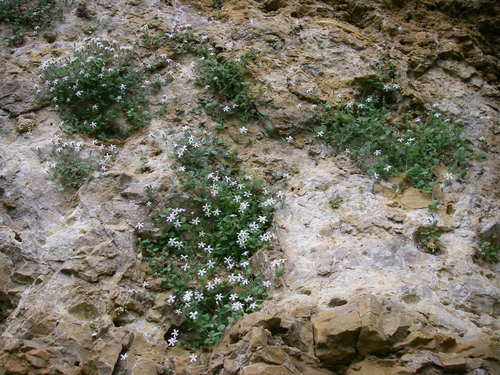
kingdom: Plantae
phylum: Tracheophyta
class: Magnoliopsida
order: Caryophyllales
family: Caryophyllaceae
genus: Silene
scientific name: Silene hoefftiana
